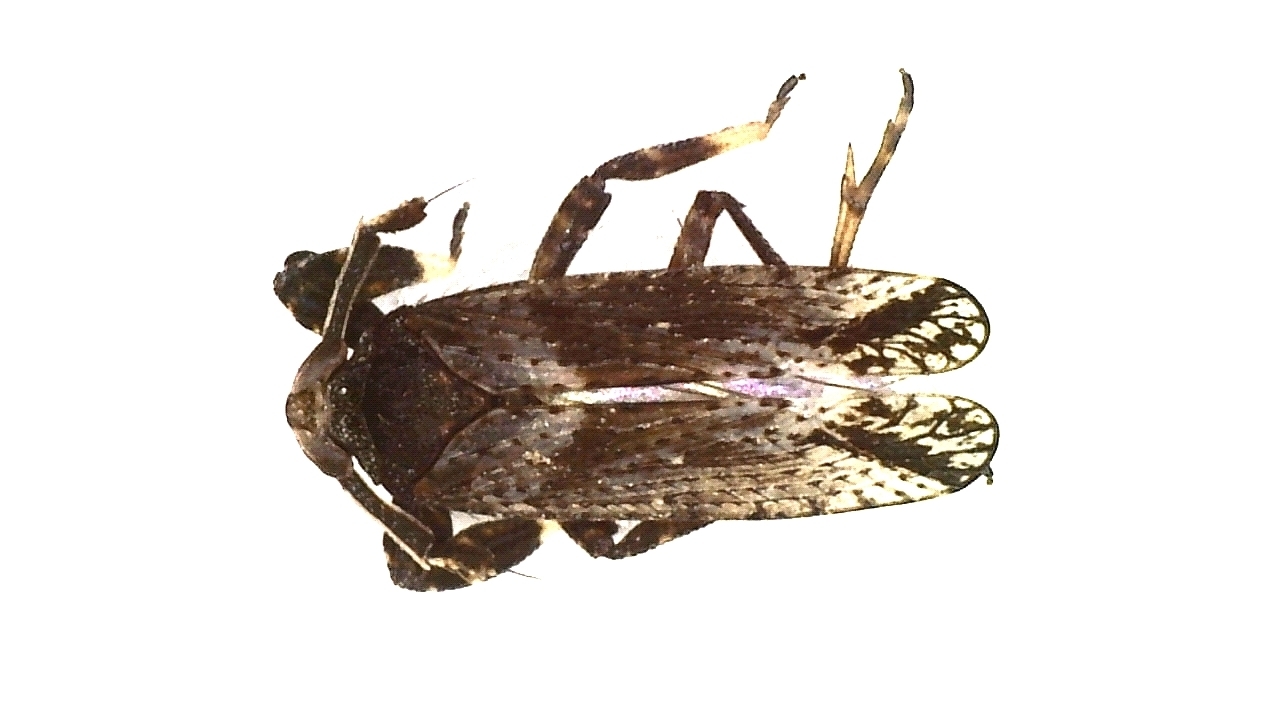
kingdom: Animalia
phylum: Arthropoda
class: Insecta
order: Hemiptera
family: Delphacidae
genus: Asiraca
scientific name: Asiraca clavicornis
